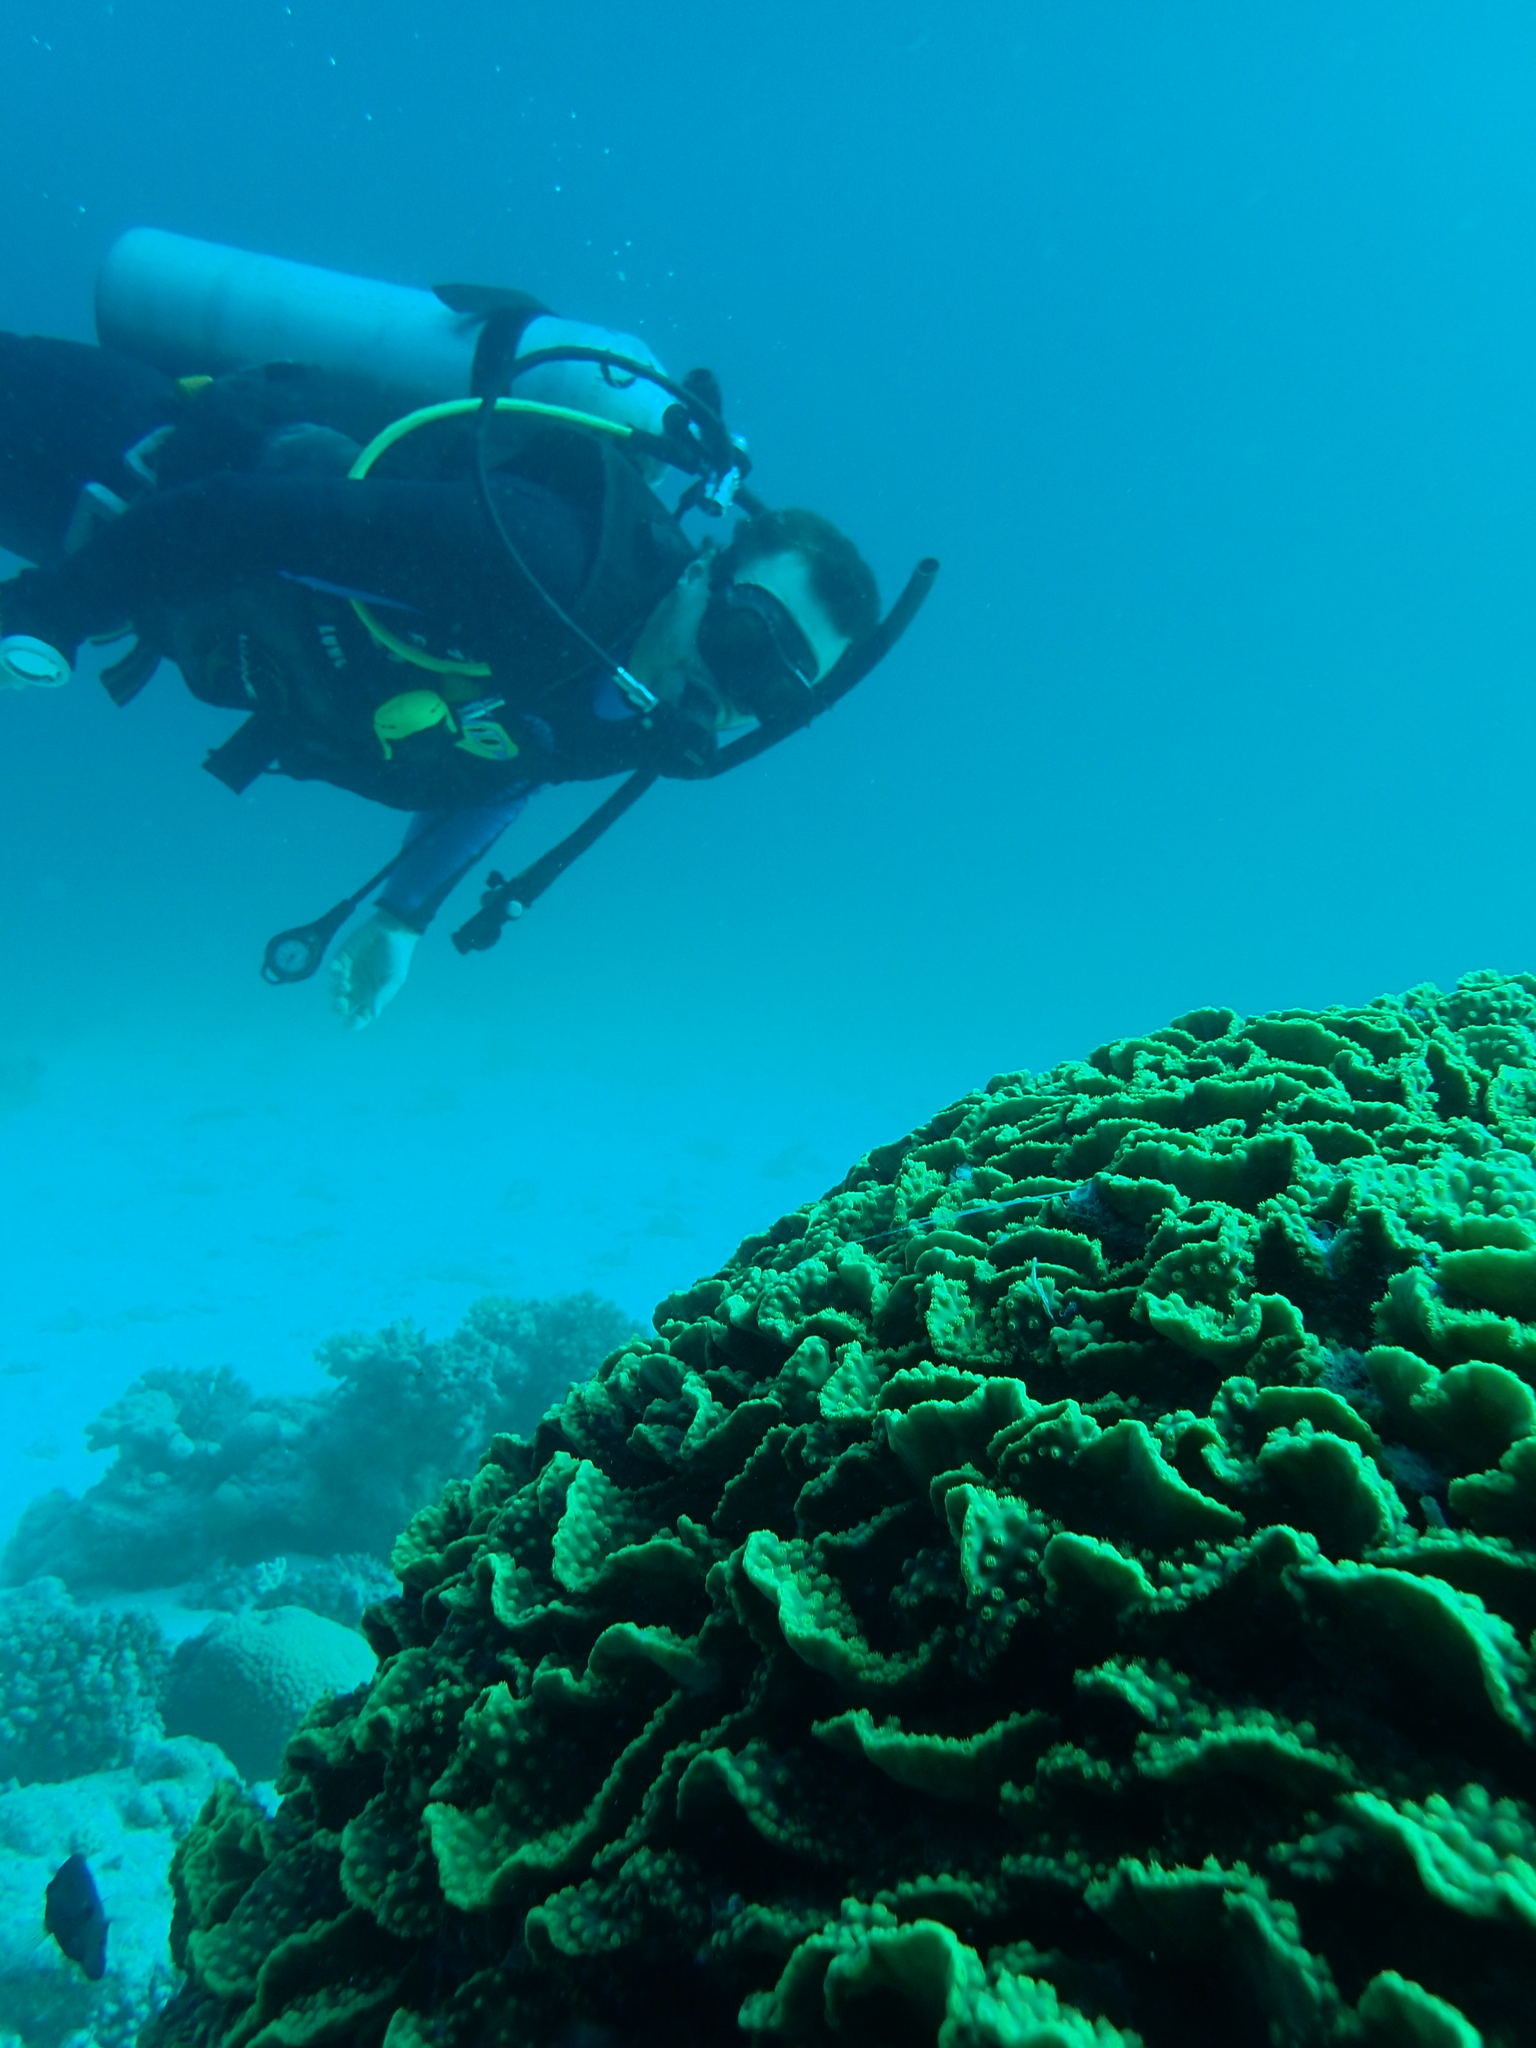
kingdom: Animalia
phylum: Cnidaria
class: Anthozoa
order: Scleractinia
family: Dendrophylliidae
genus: Turbinaria
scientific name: Turbinaria reniformis
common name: Disc coral
